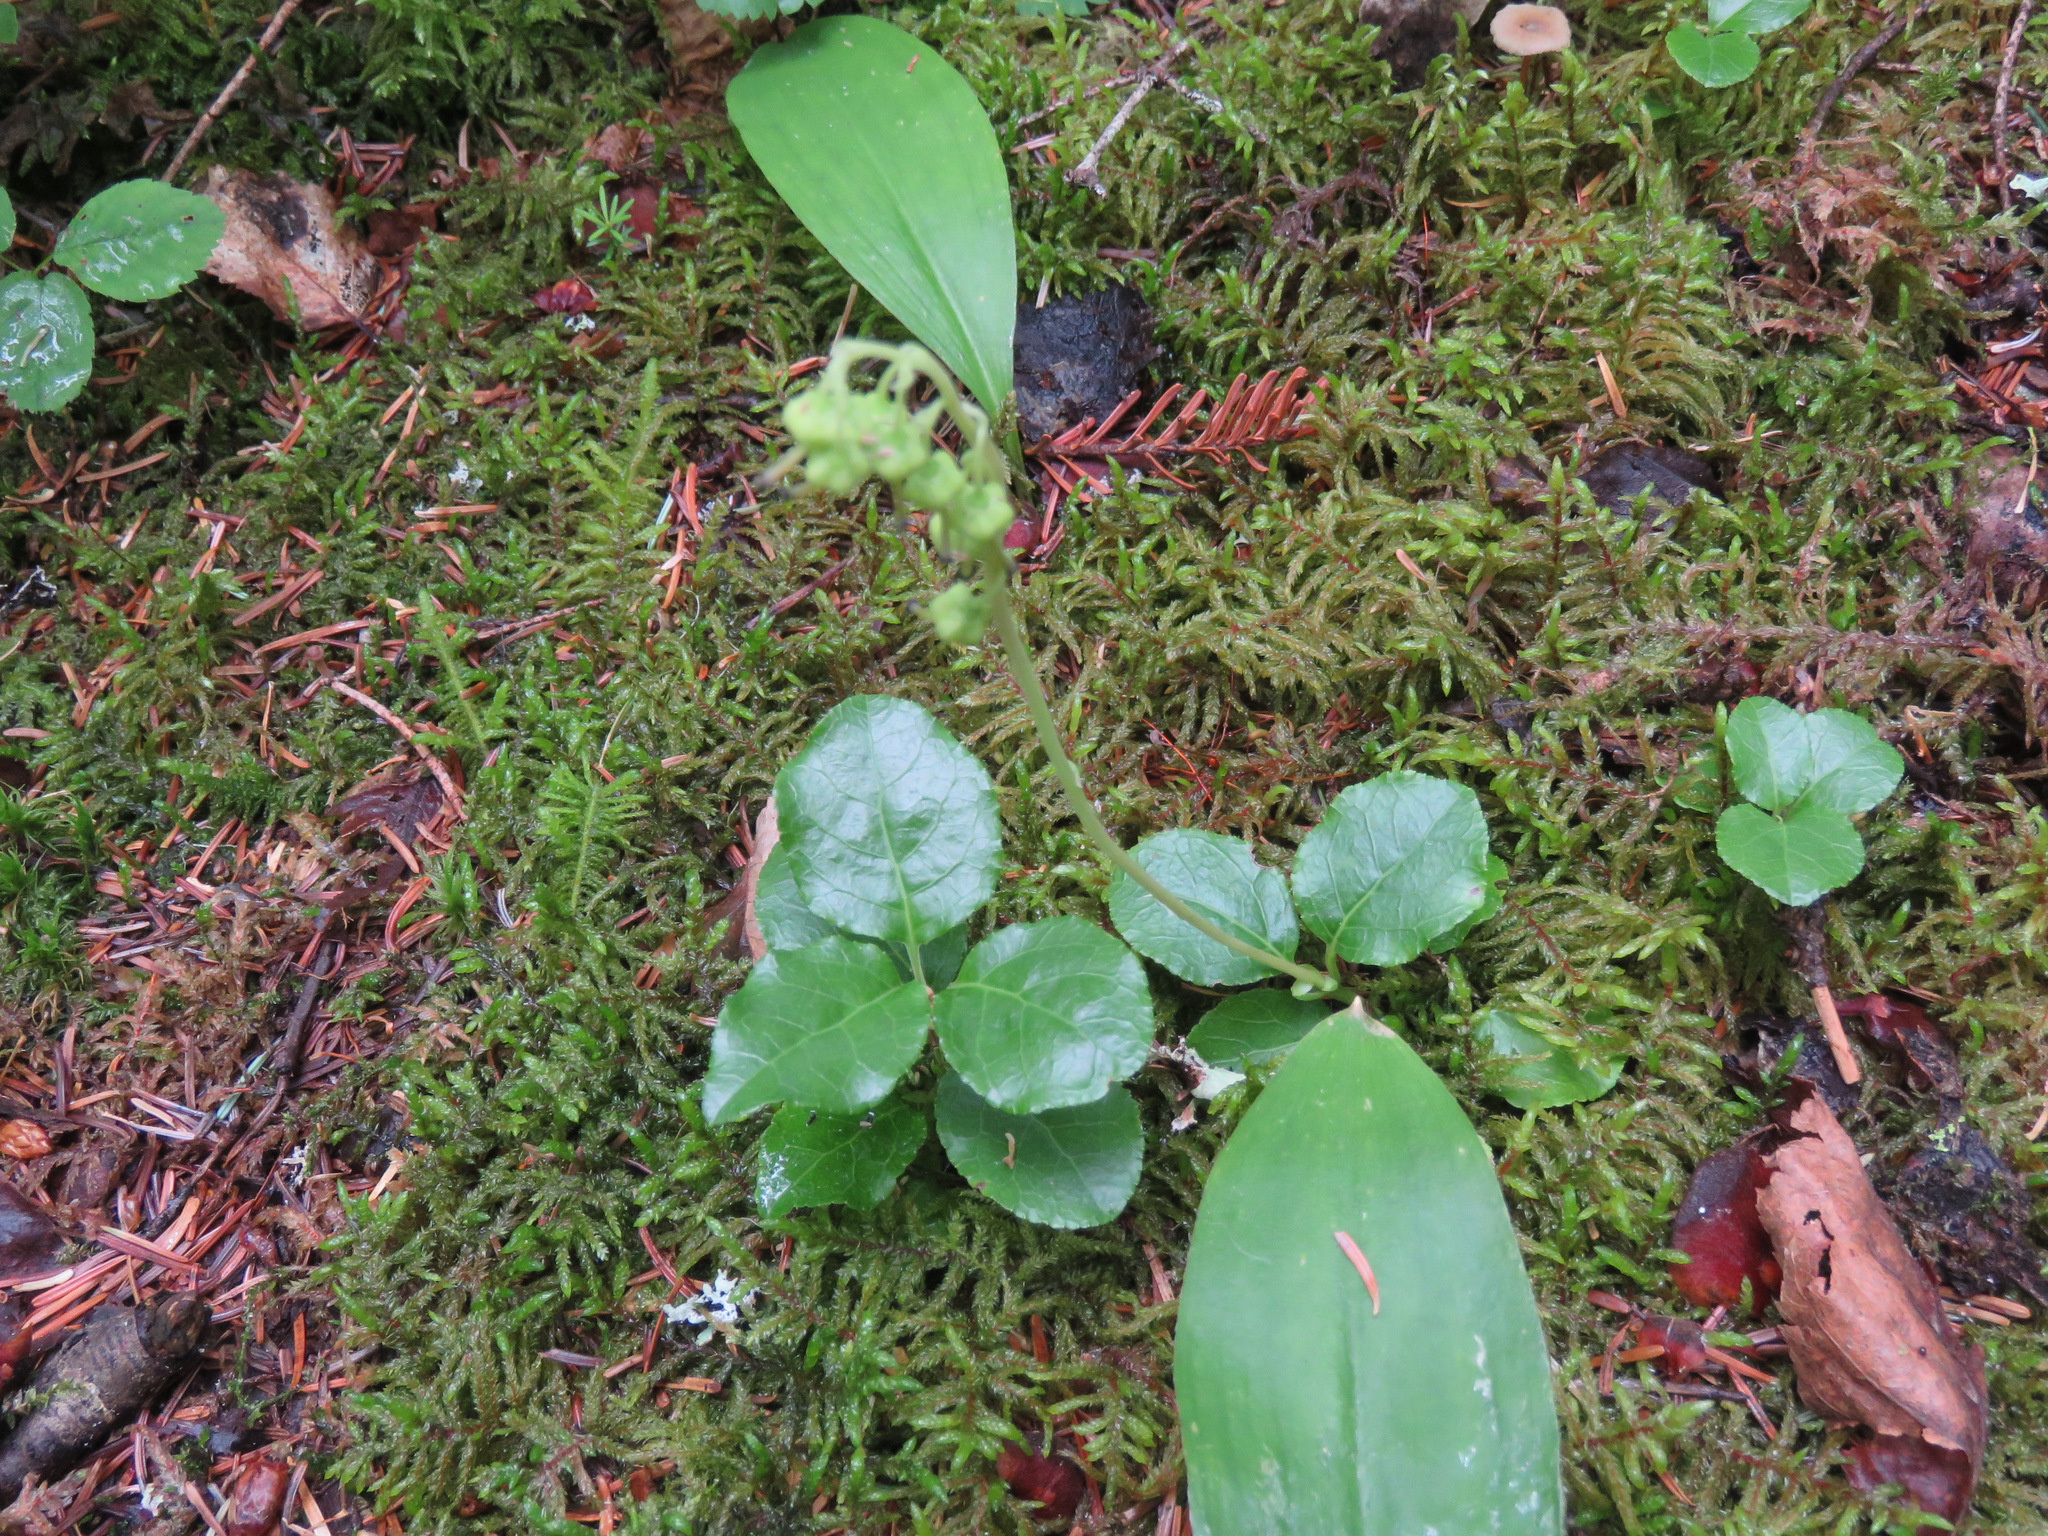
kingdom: Plantae
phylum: Tracheophyta
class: Magnoliopsida
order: Ericales
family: Ericaceae
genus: Orthilia
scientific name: Orthilia secunda
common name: One-sided orthilia
